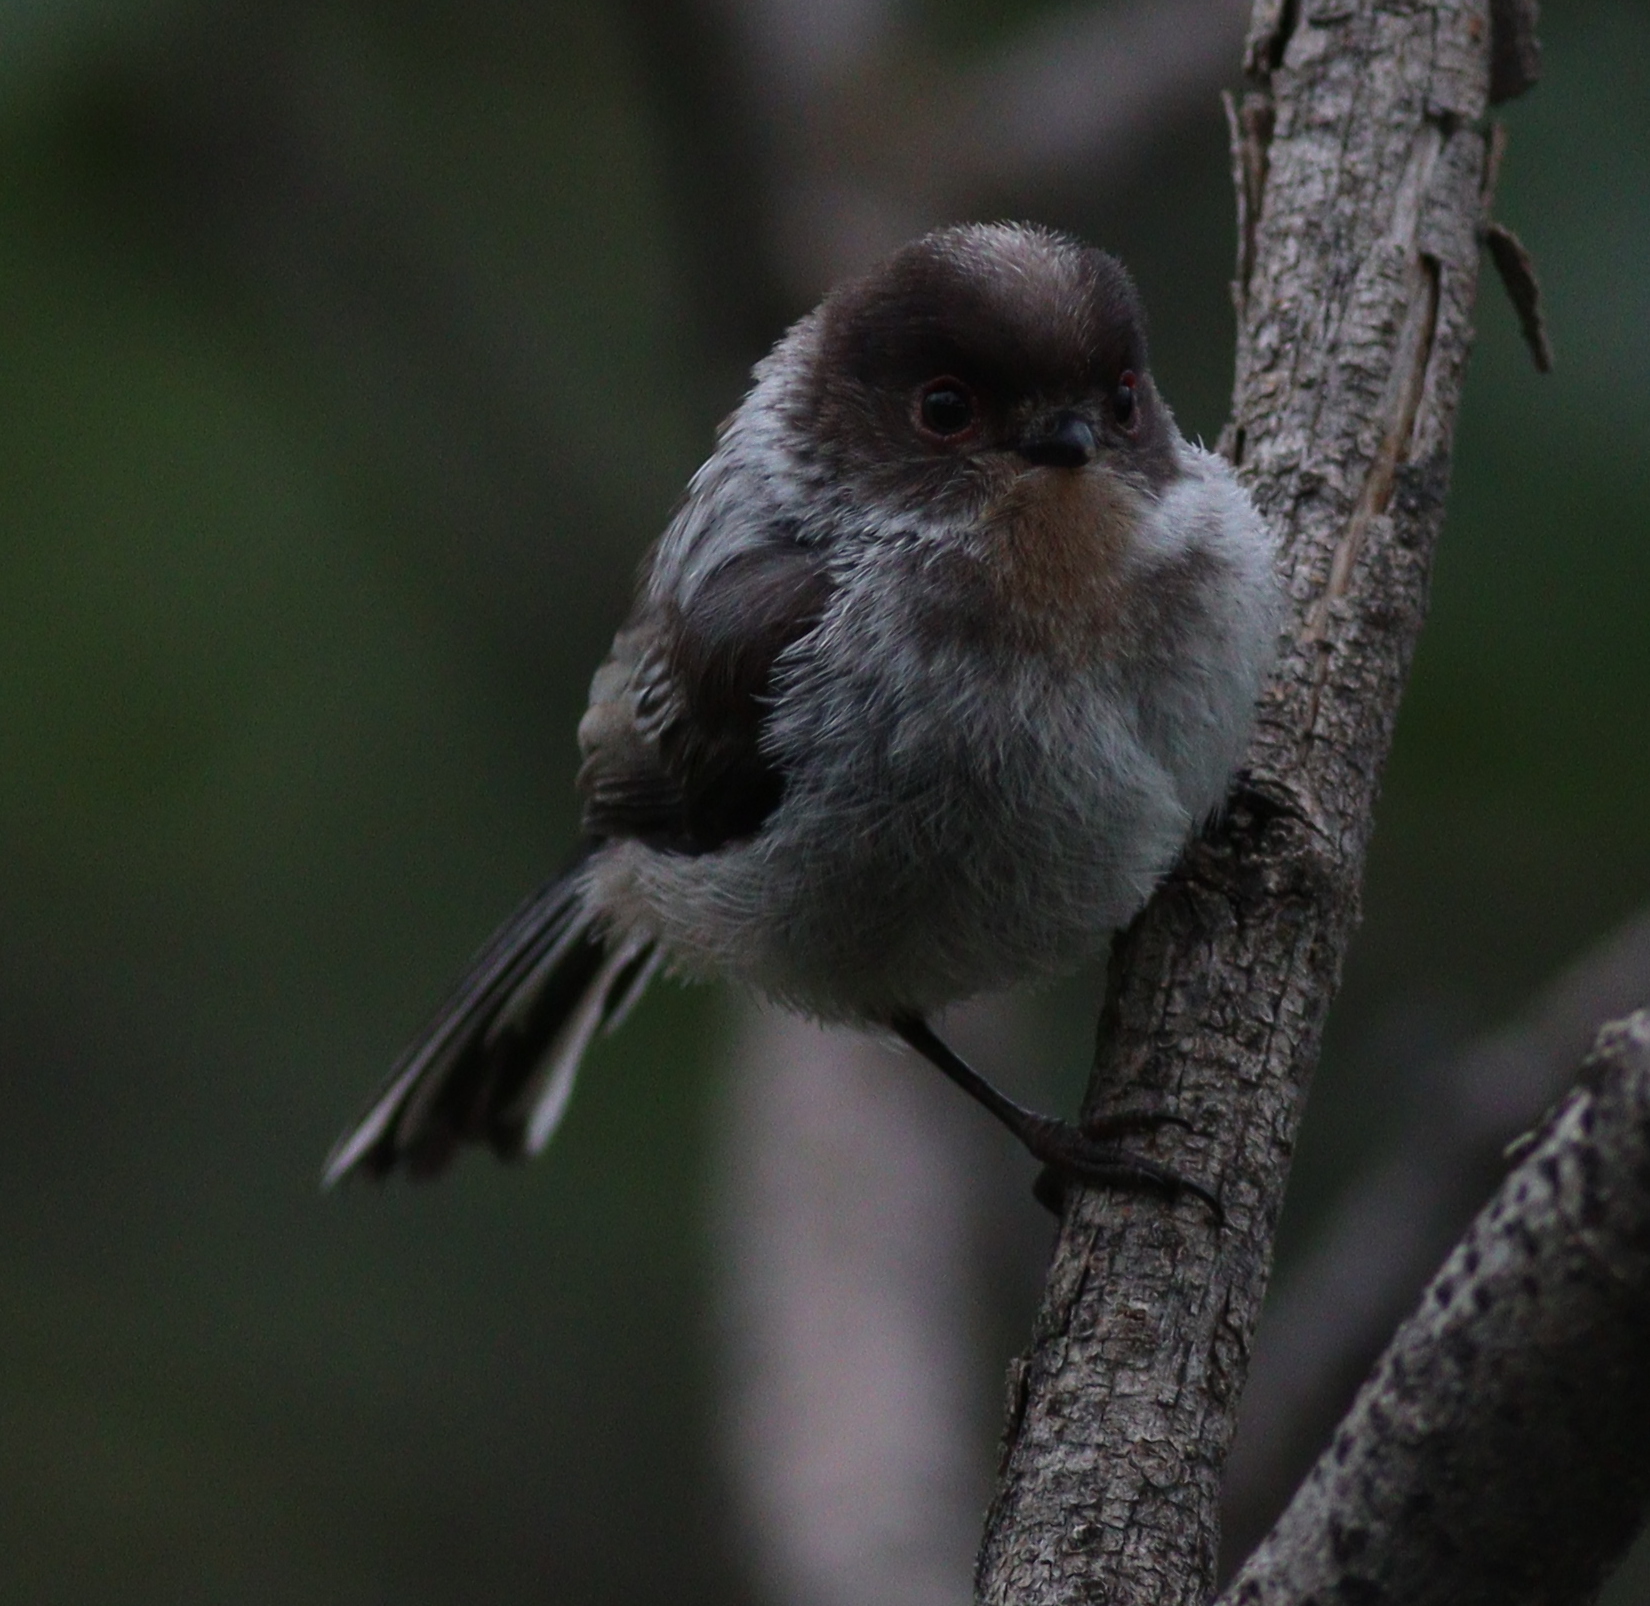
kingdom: Animalia
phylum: Chordata
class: Aves
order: Passeriformes
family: Aegithalidae
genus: Aegithalos
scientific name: Aegithalos caudatus
